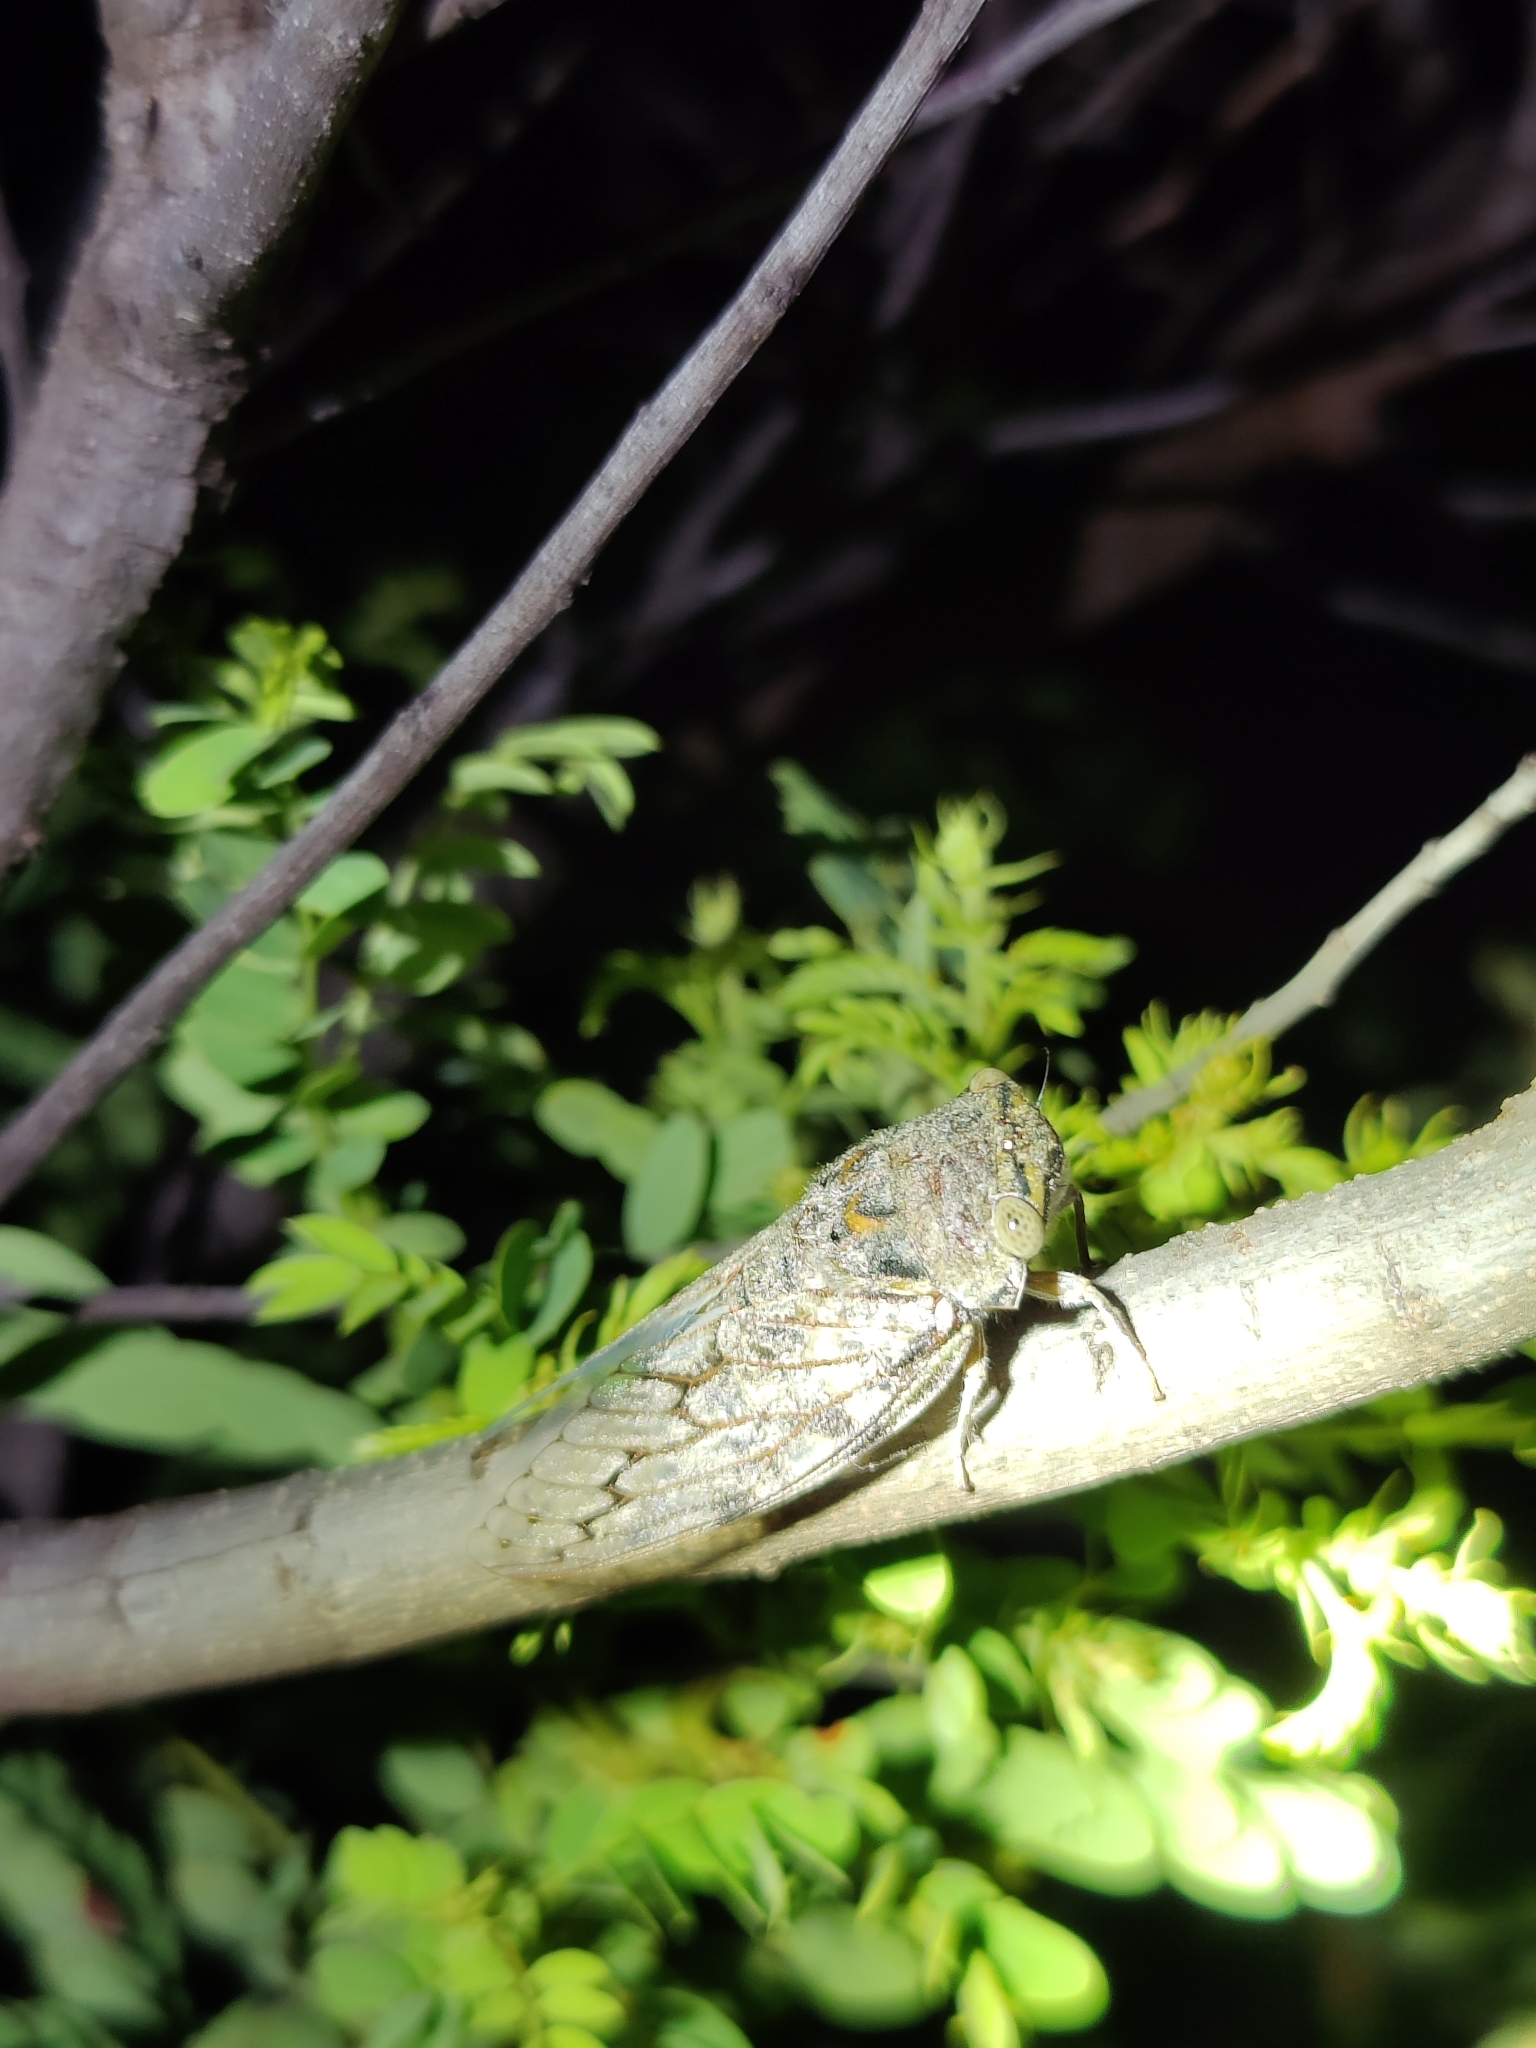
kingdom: Animalia
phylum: Arthropoda
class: Insecta
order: Hemiptera
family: Cicadidae
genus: Platypleura
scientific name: Platypleura octoguttata
